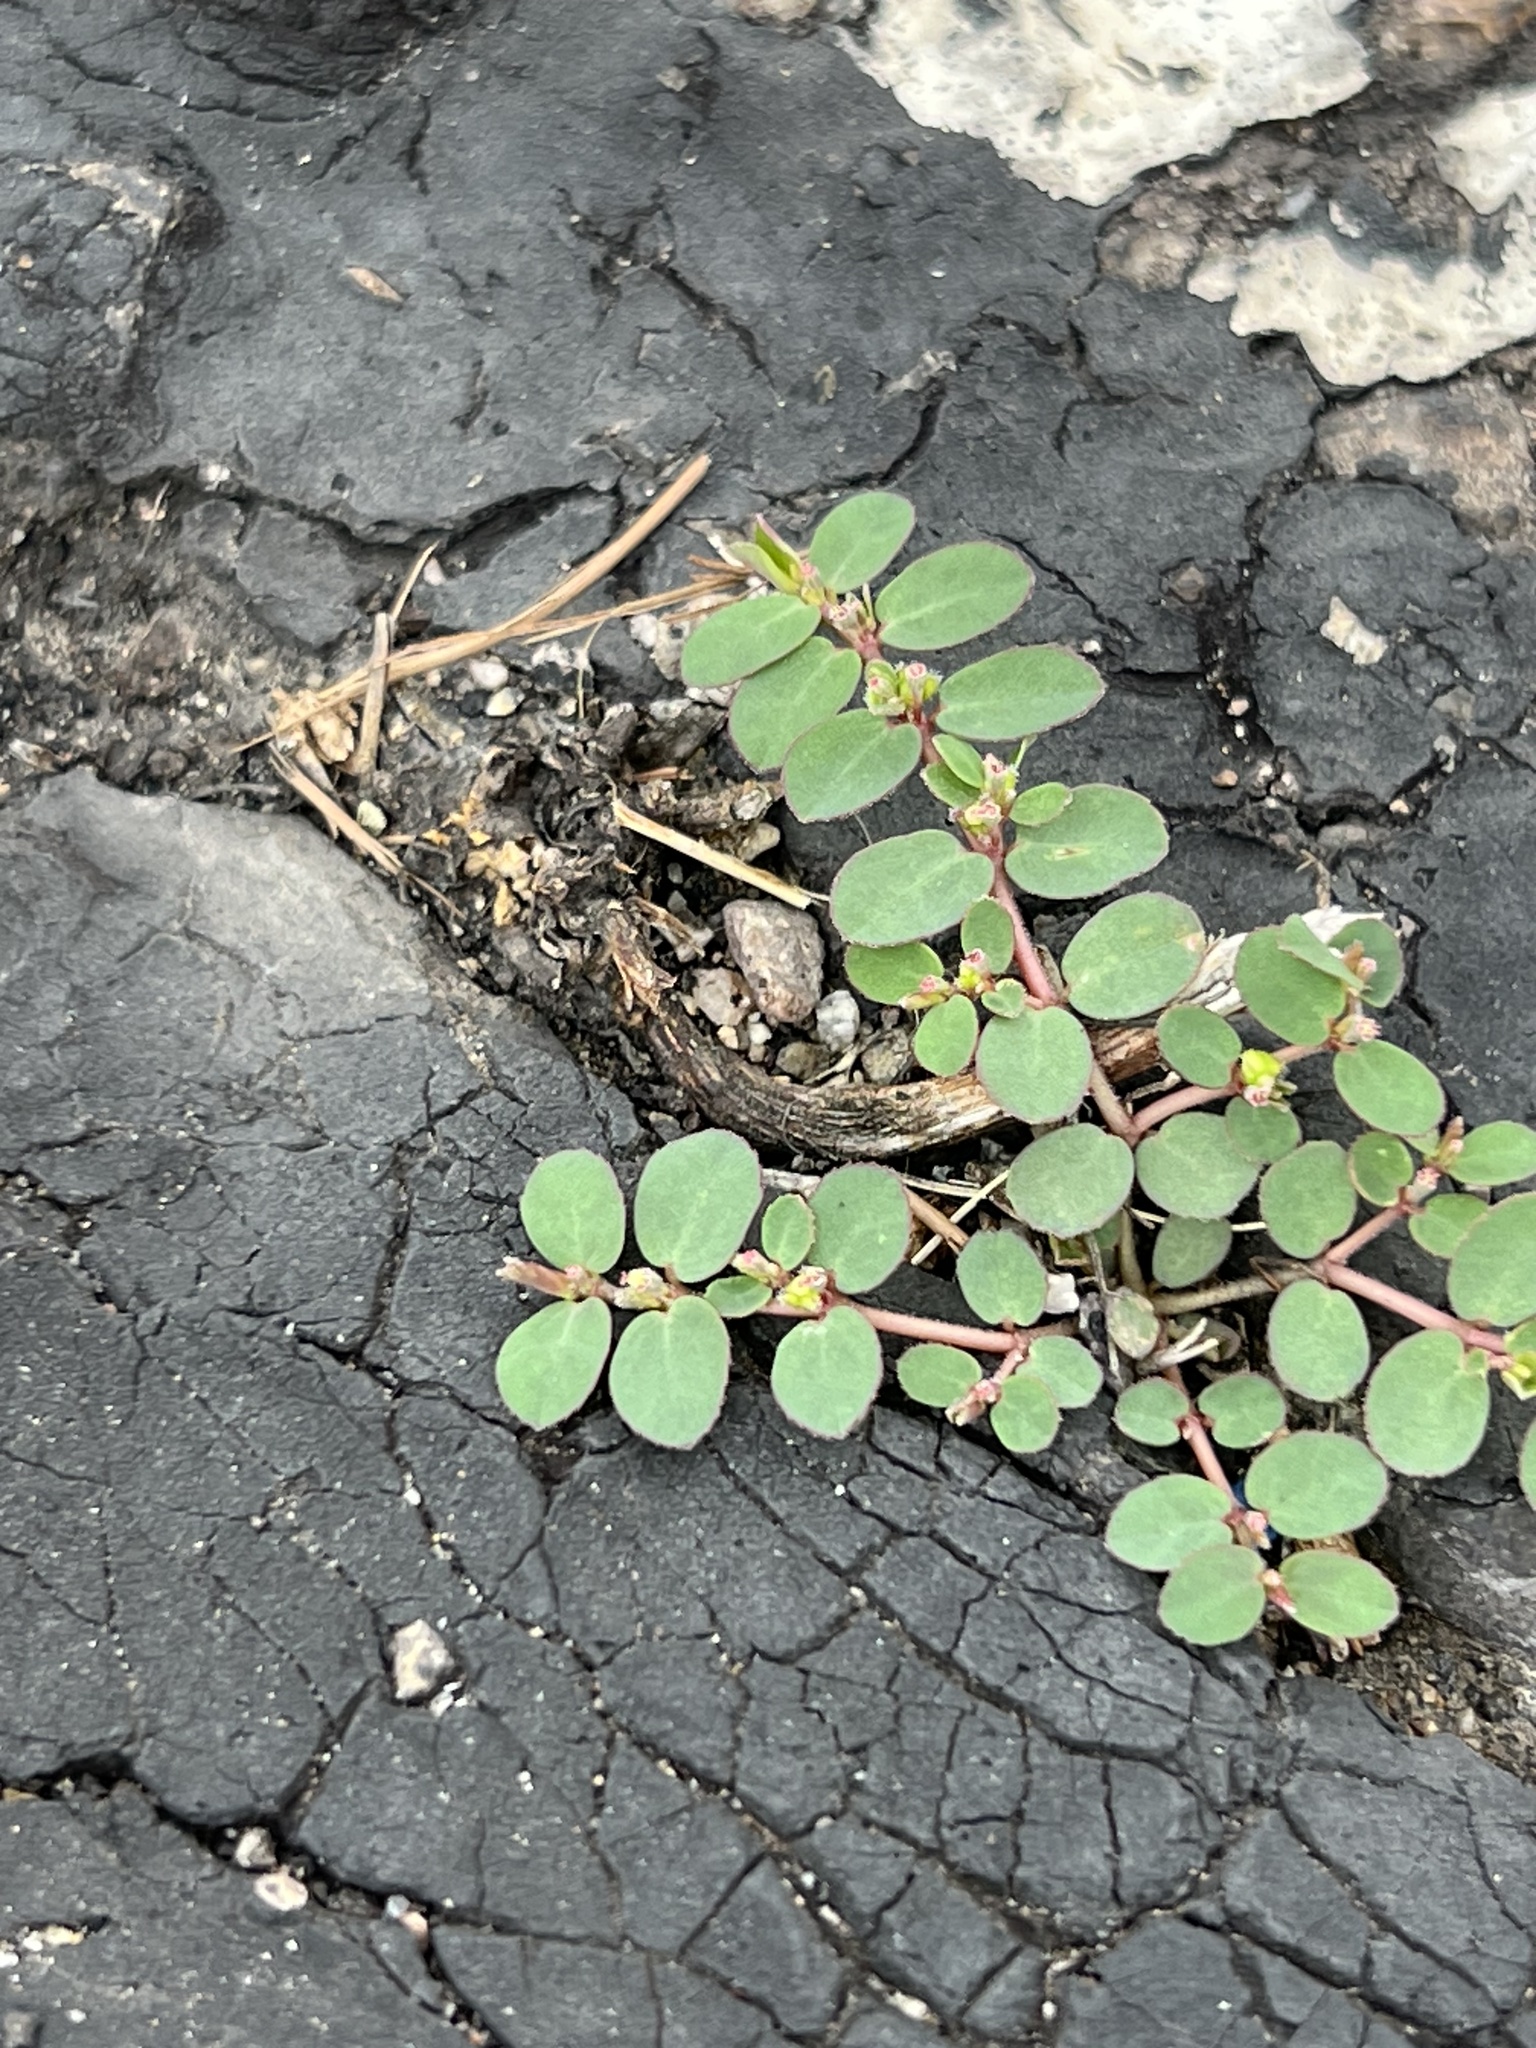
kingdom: Plantae
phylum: Tracheophyta
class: Magnoliopsida
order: Malpighiales
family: Euphorbiaceae
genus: Euphorbia
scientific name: Euphorbia prostrata
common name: Prostrate sandmat
